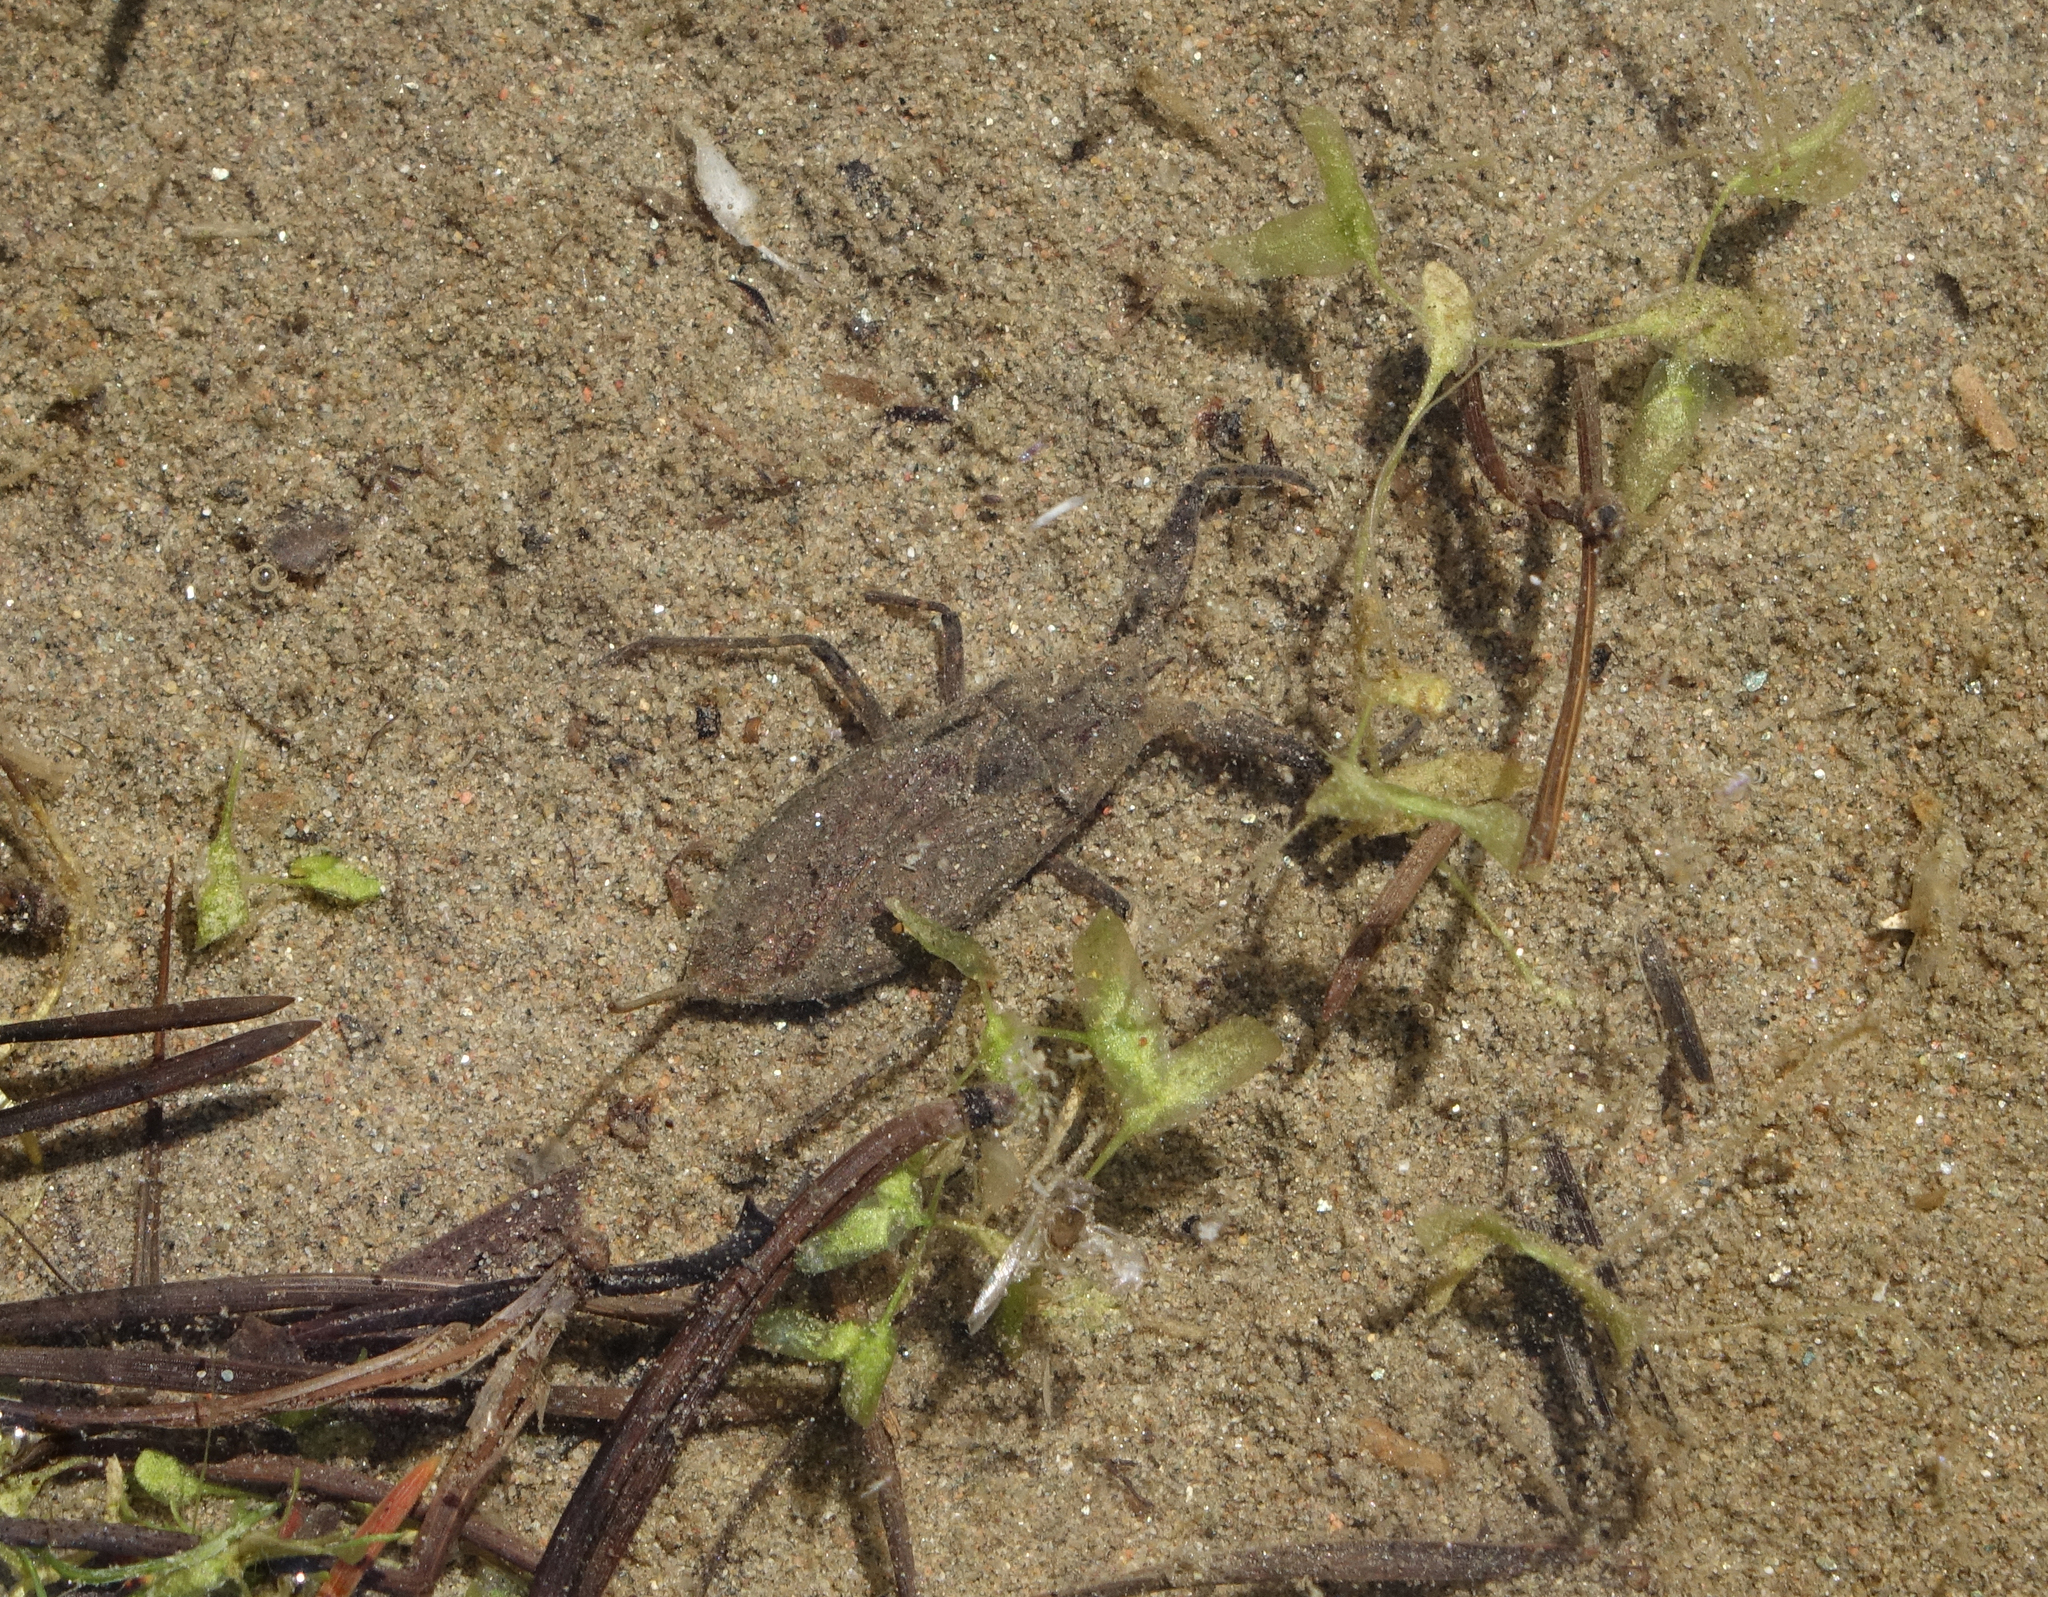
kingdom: Animalia
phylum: Arthropoda
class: Insecta
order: Hemiptera
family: Nepidae
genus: Nepa
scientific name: Nepa cinerea
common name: Water scorpion
